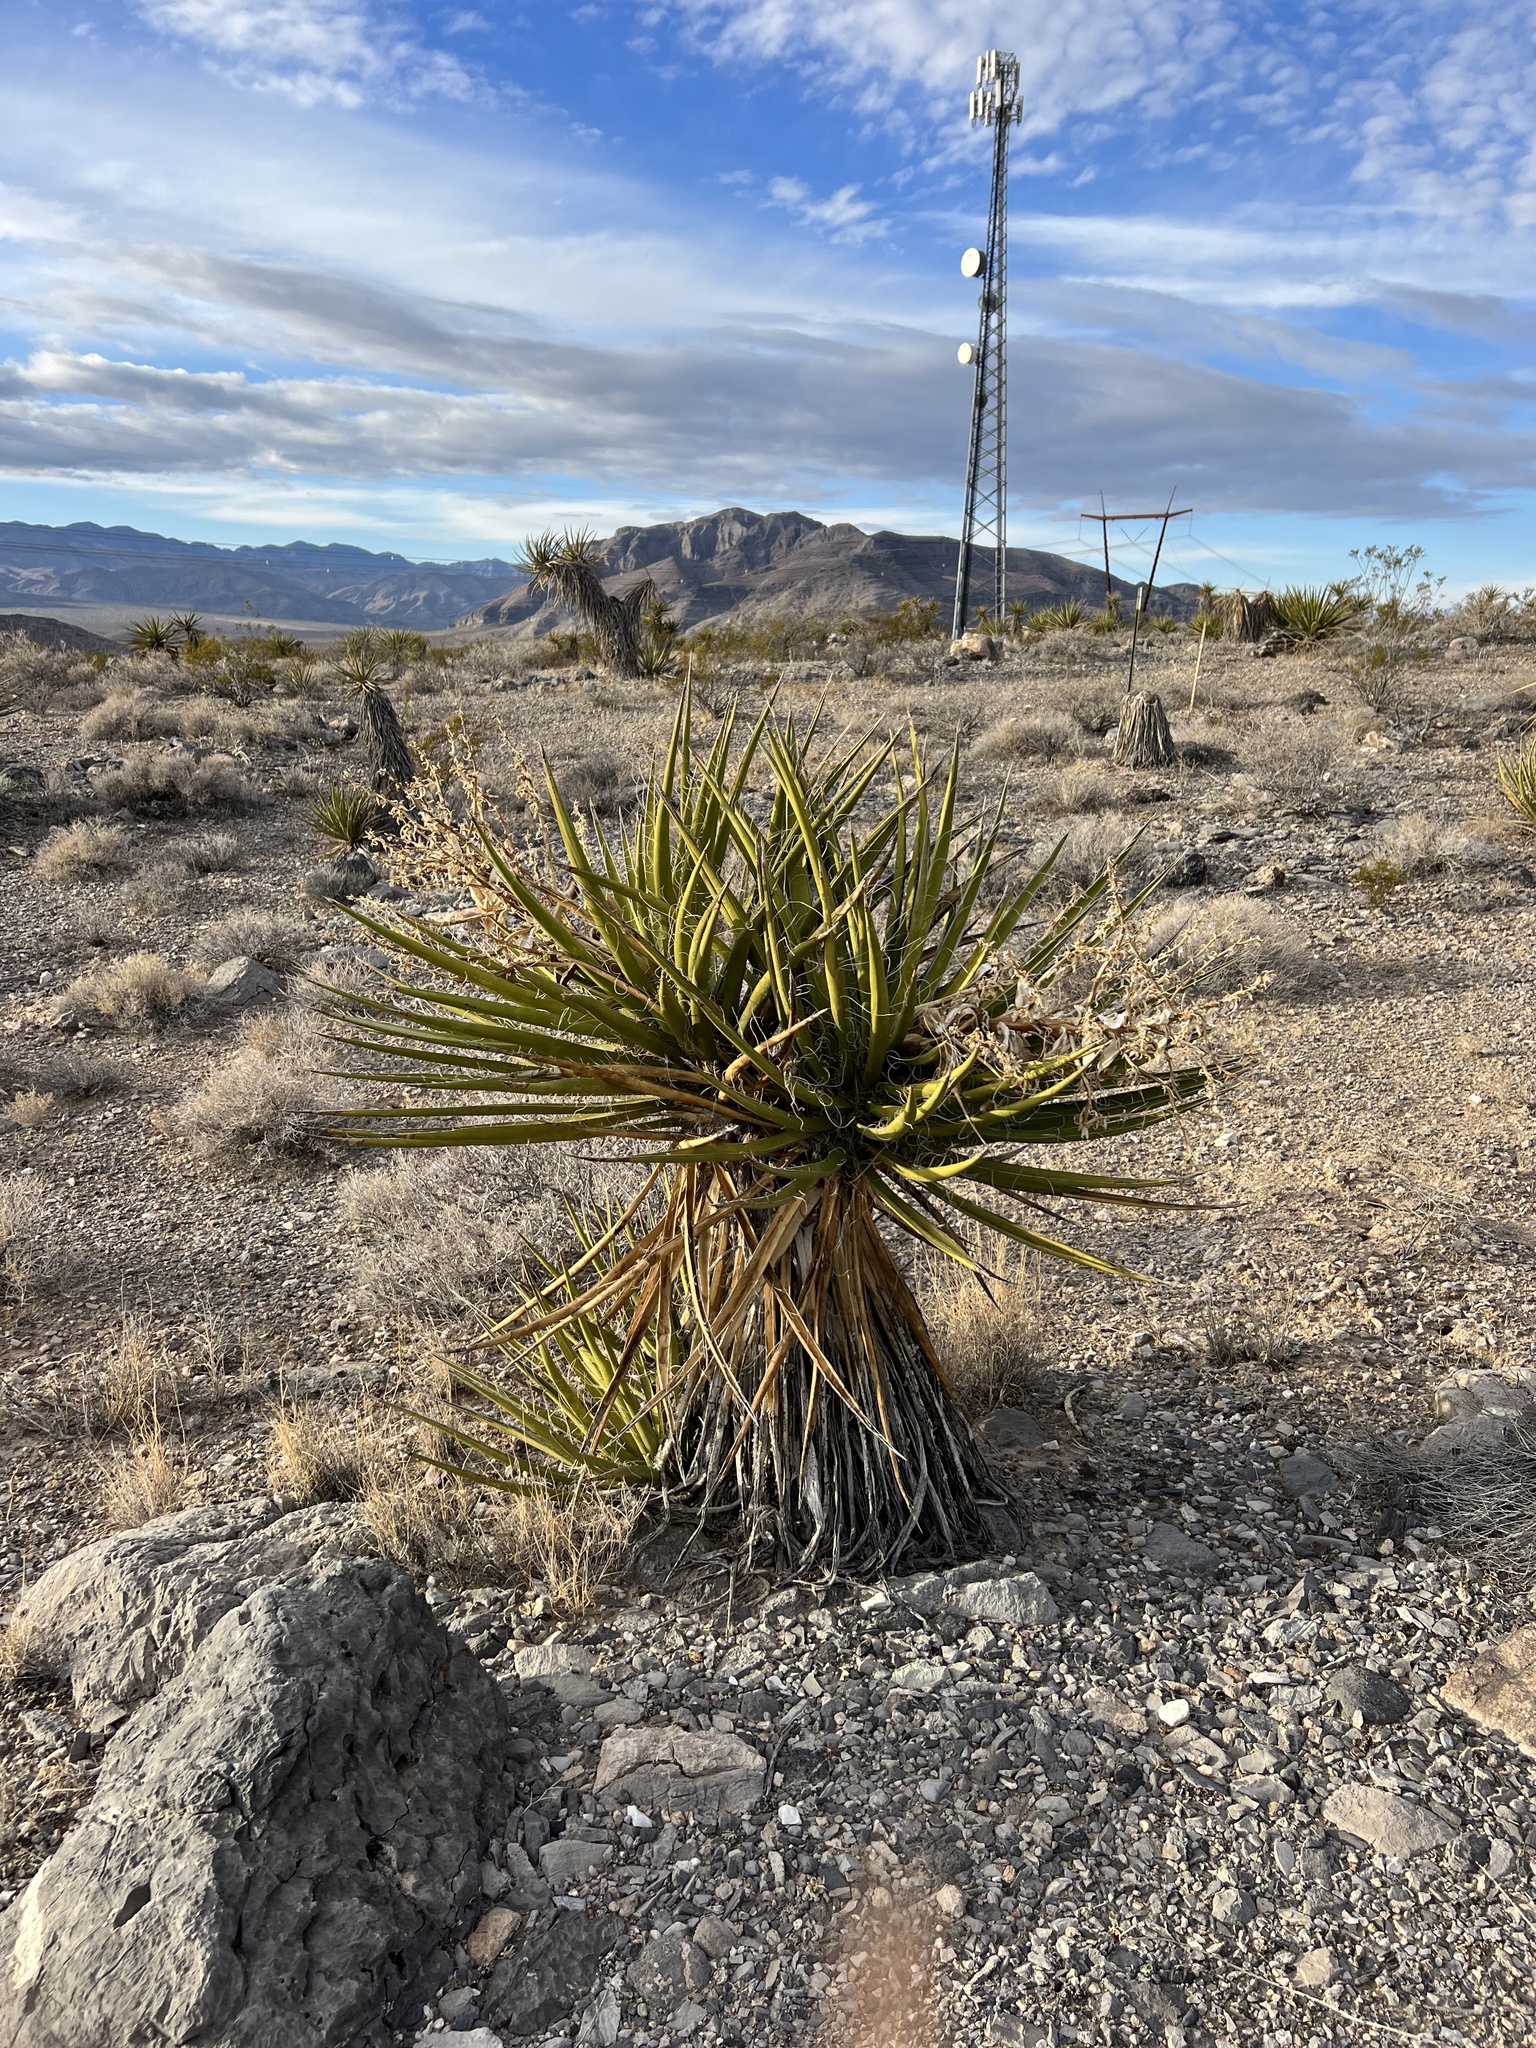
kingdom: Plantae
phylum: Tracheophyta
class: Liliopsida
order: Asparagales
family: Asparagaceae
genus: Yucca
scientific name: Yucca schidigera
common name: Mojave yucca
